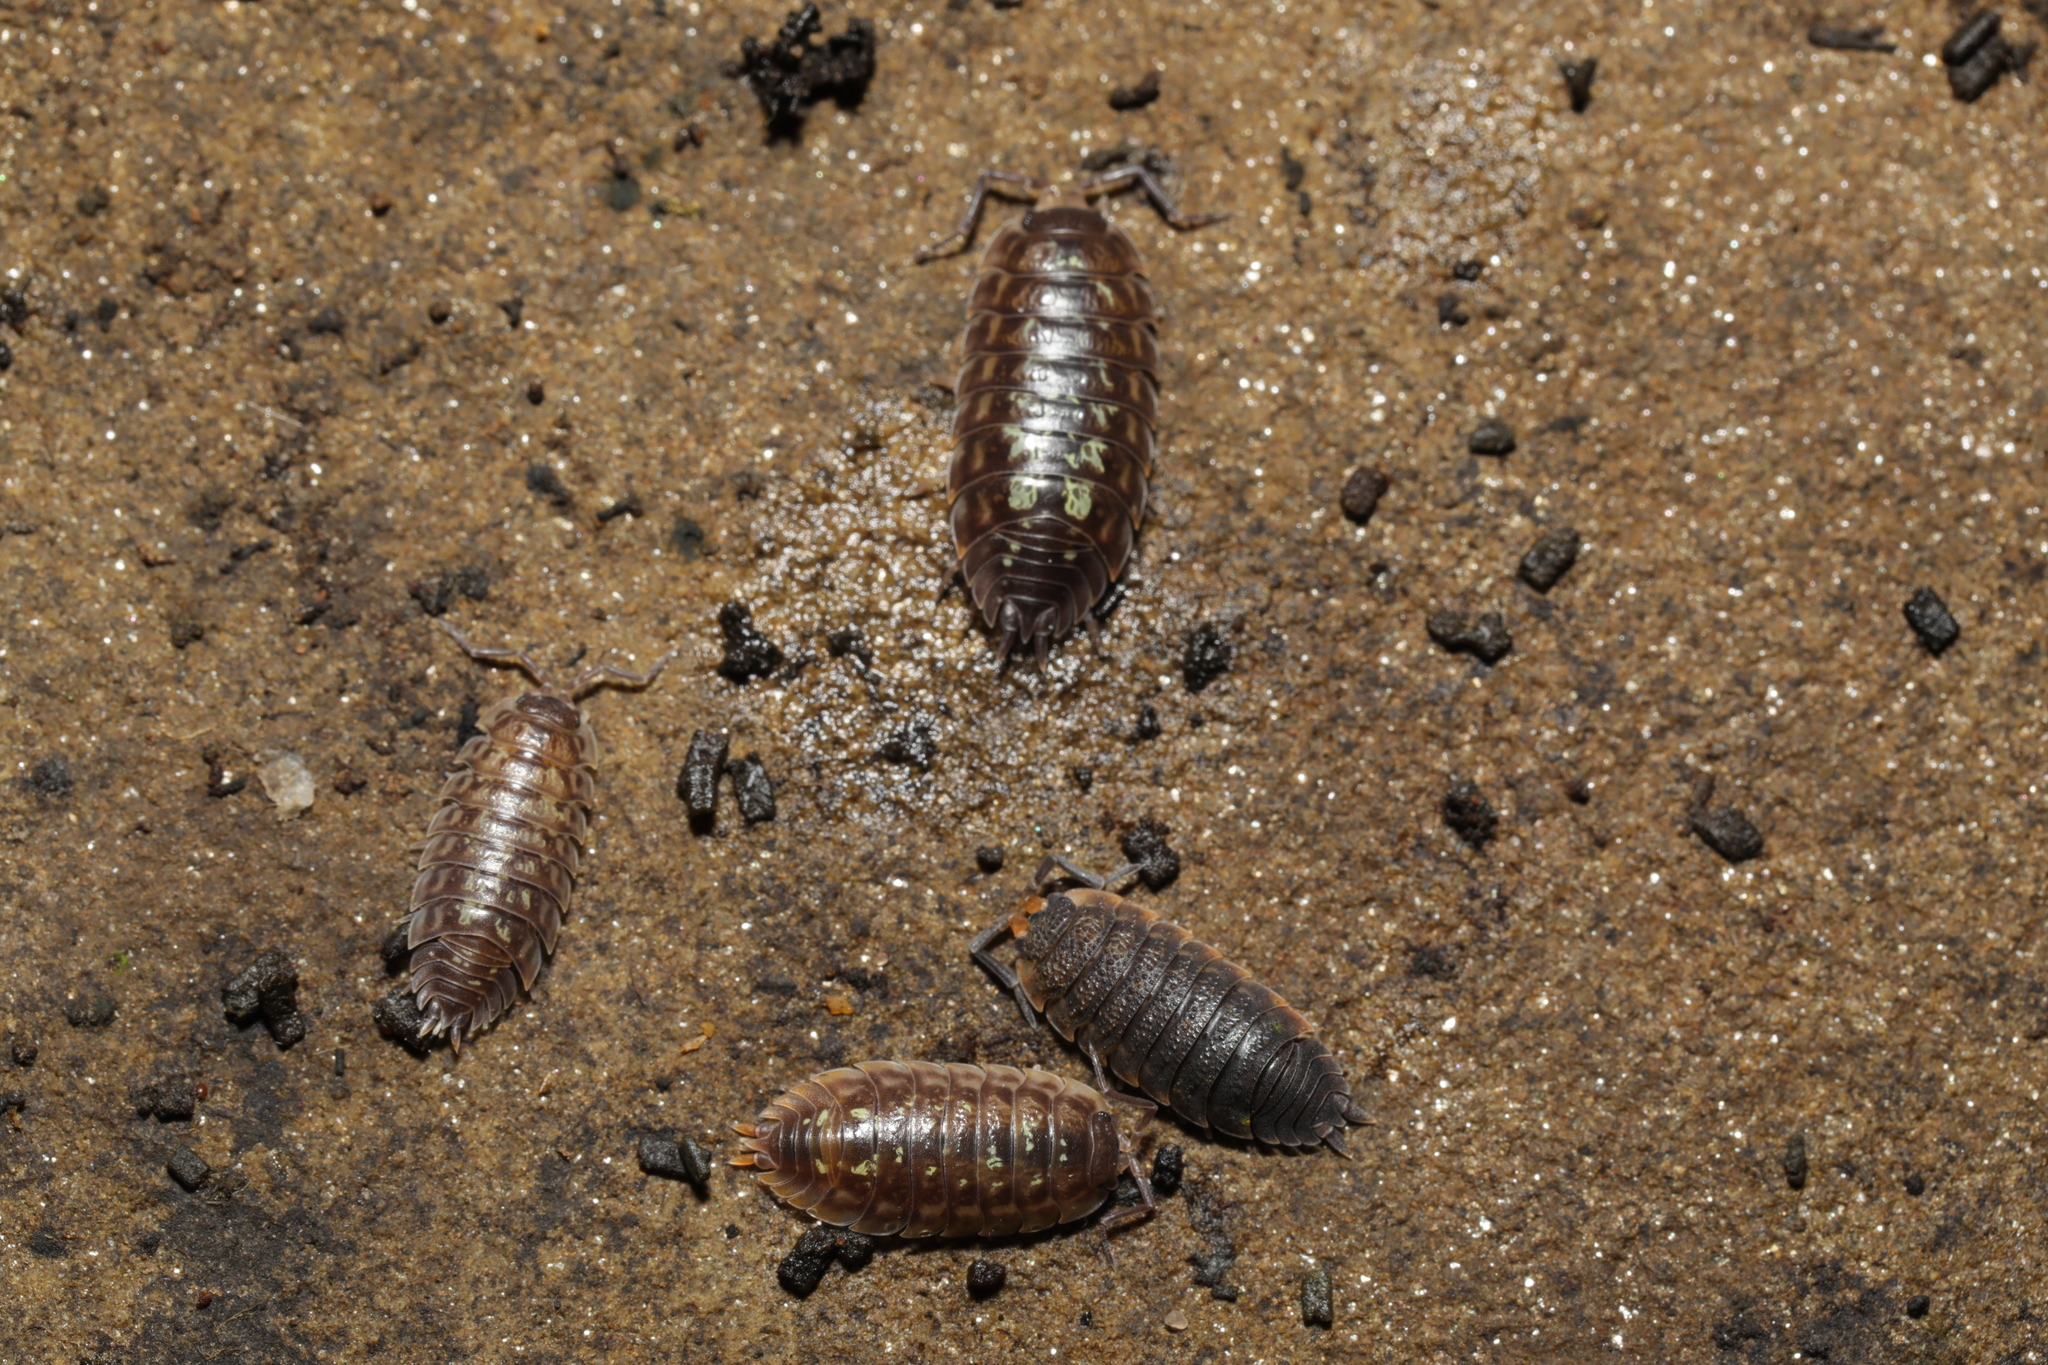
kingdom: Animalia
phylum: Arthropoda
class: Malacostraca
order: Isopoda
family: Oniscidae
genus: Oniscus
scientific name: Oniscus asellus
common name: Common shiny woodlouse
